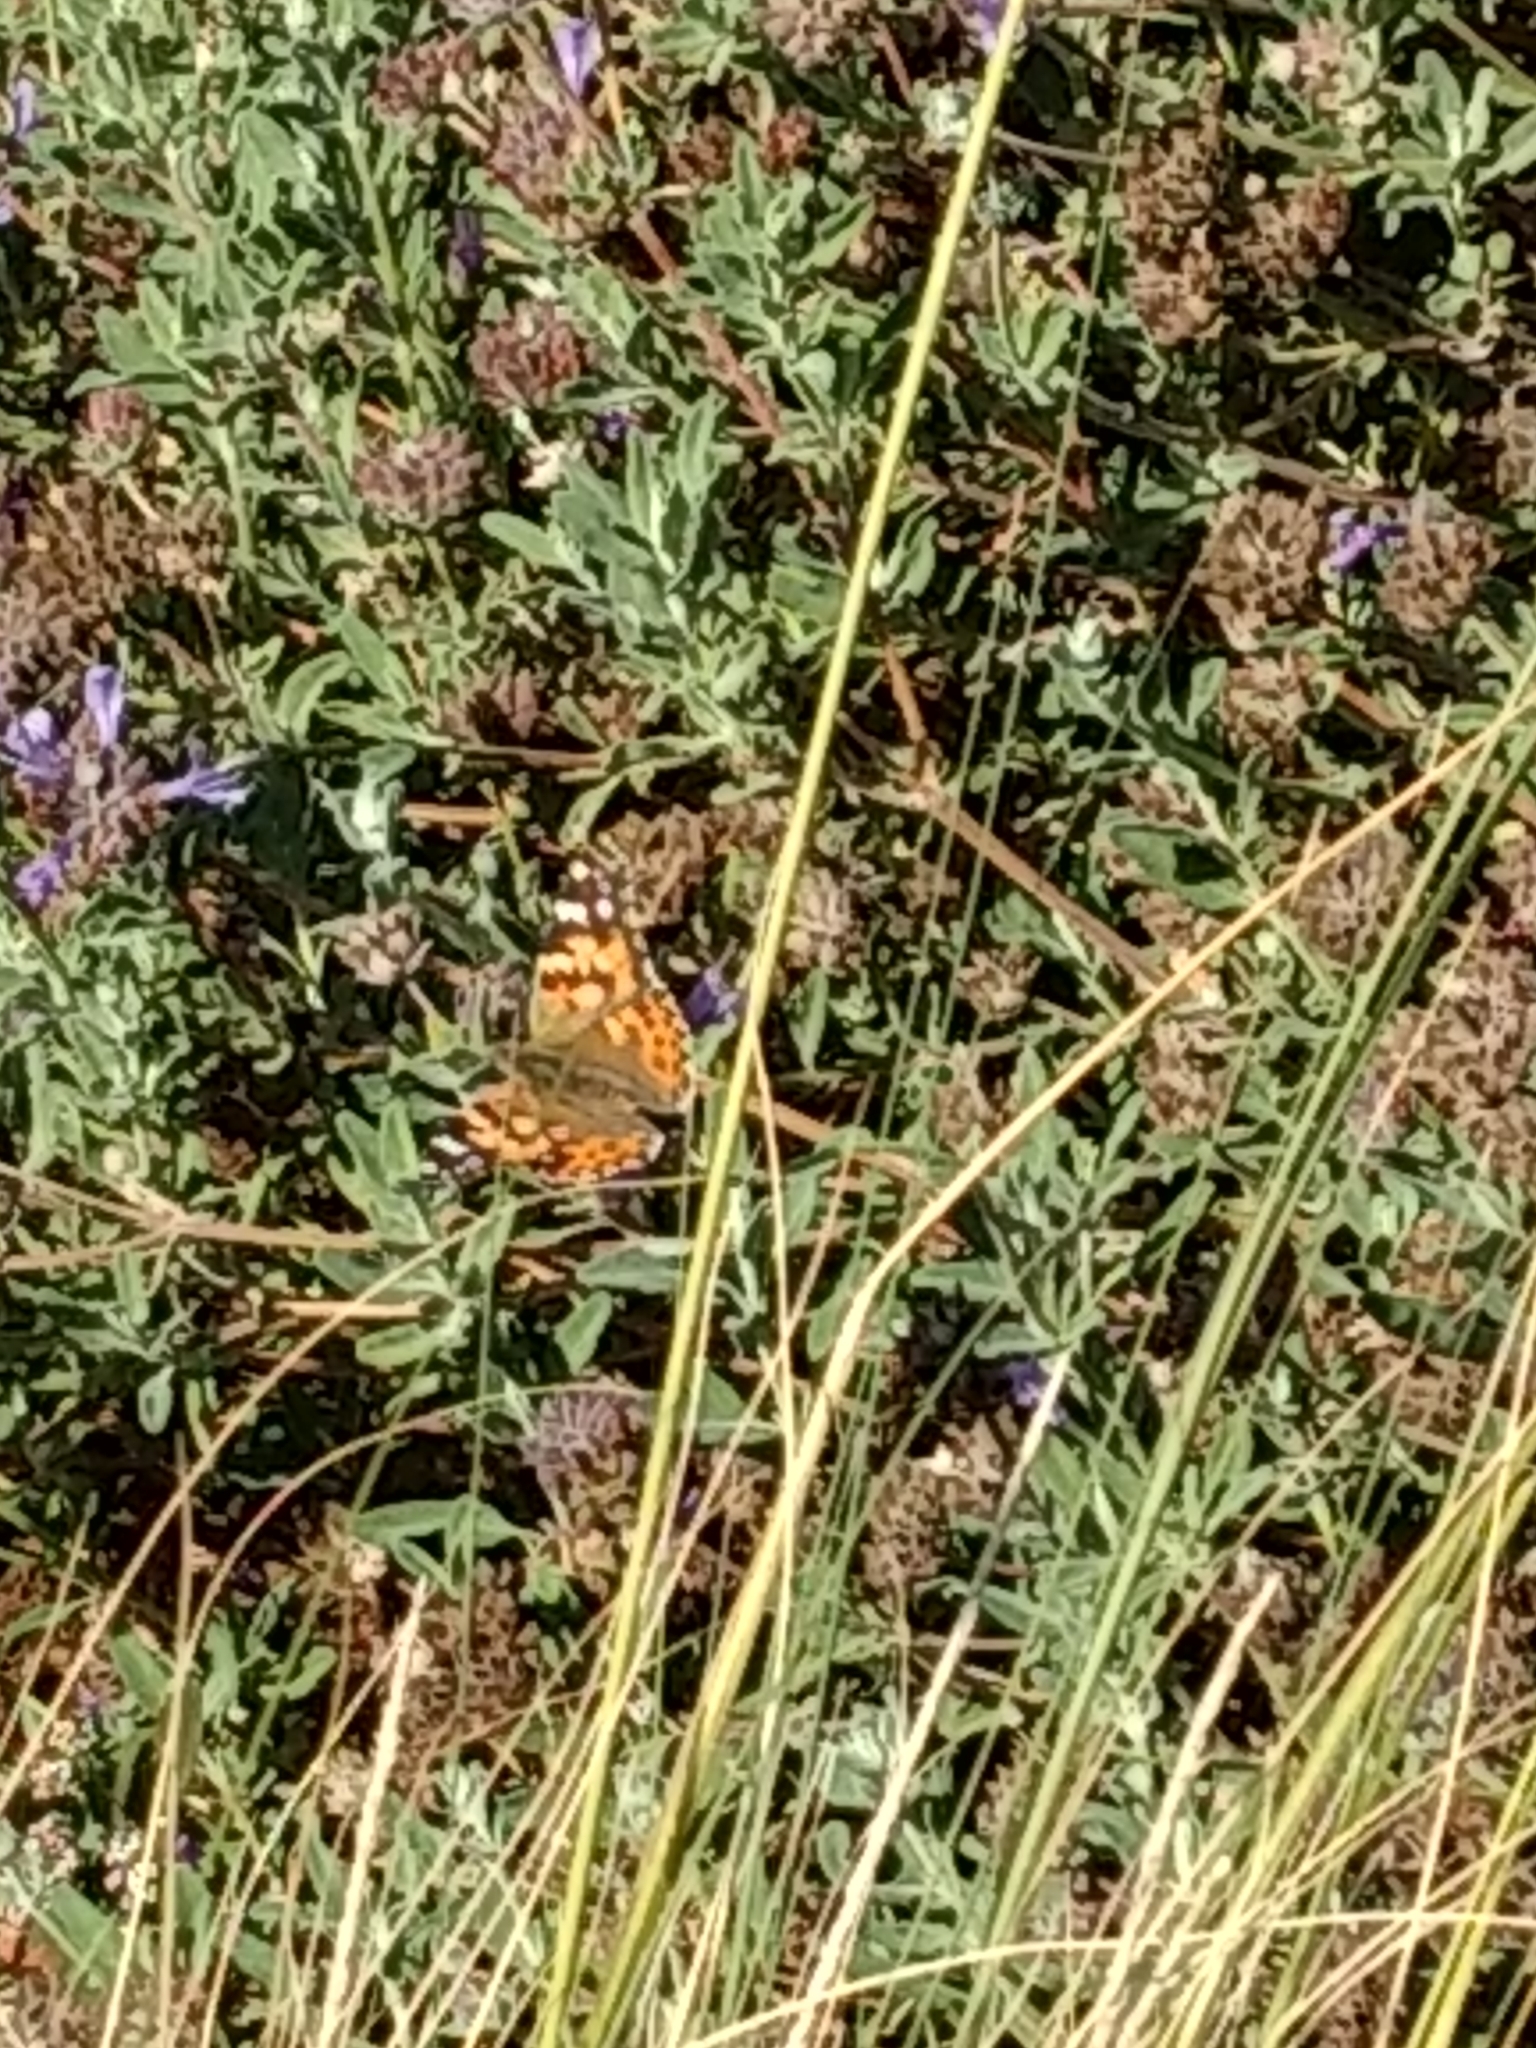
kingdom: Animalia
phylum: Arthropoda
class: Insecta
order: Lepidoptera
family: Nymphalidae
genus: Vanessa
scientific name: Vanessa cardui
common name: Painted lady
